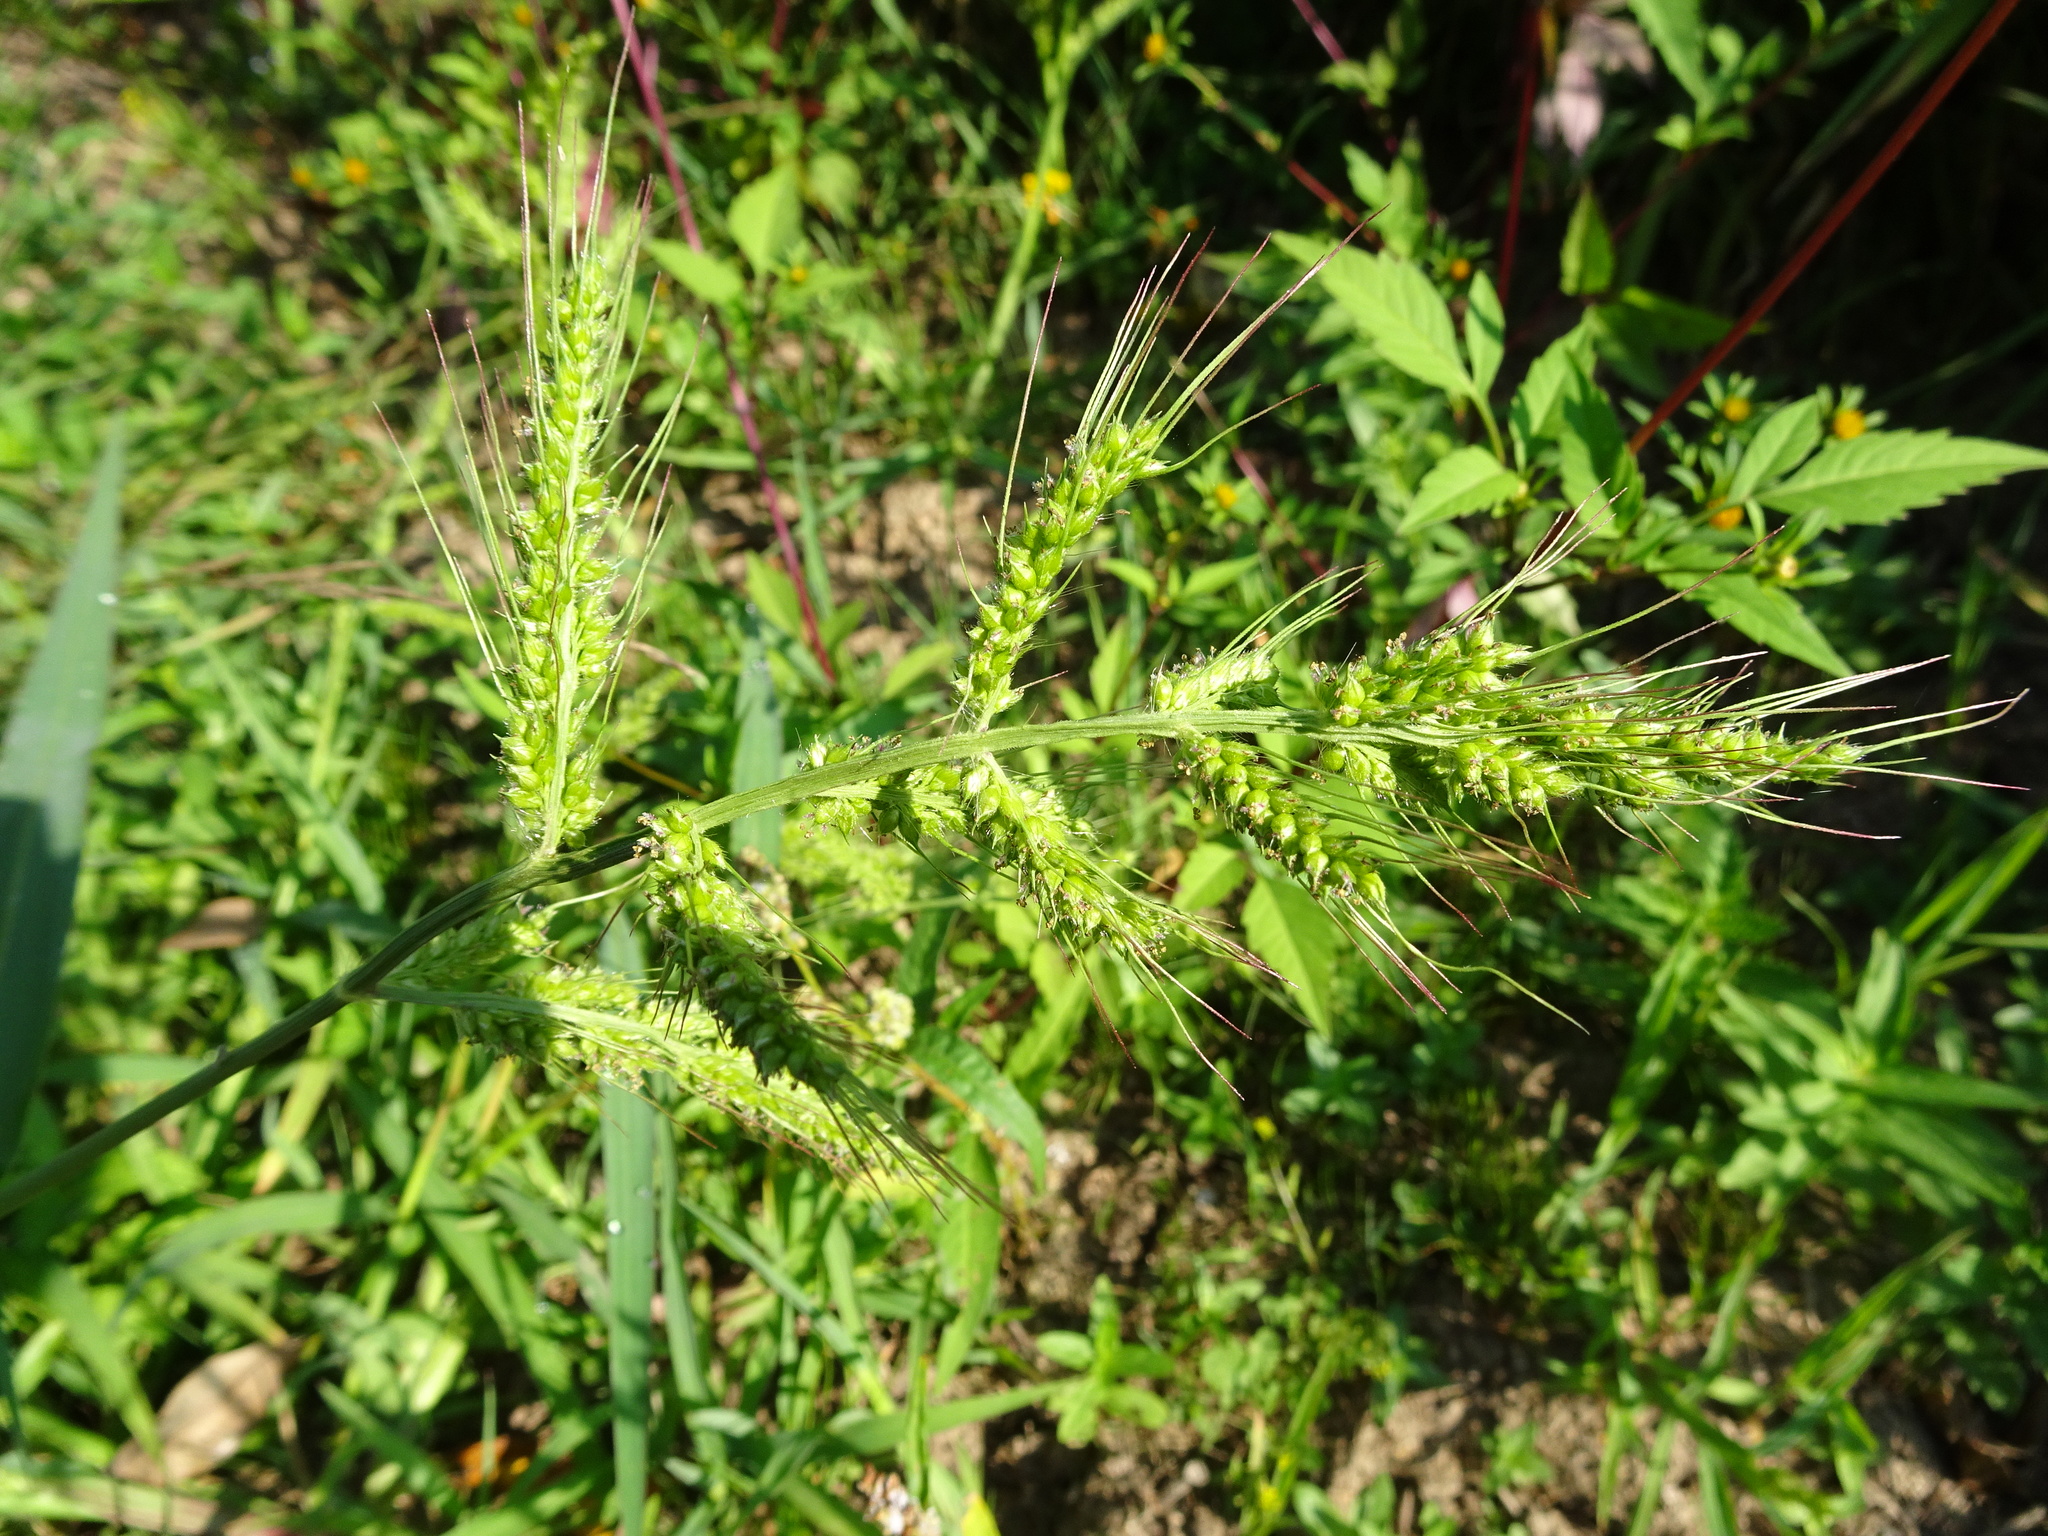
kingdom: Plantae
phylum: Tracheophyta
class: Liliopsida
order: Poales
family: Poaceae
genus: Echinochloa
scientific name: Echinochloa crus-galli
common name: Cockspur
